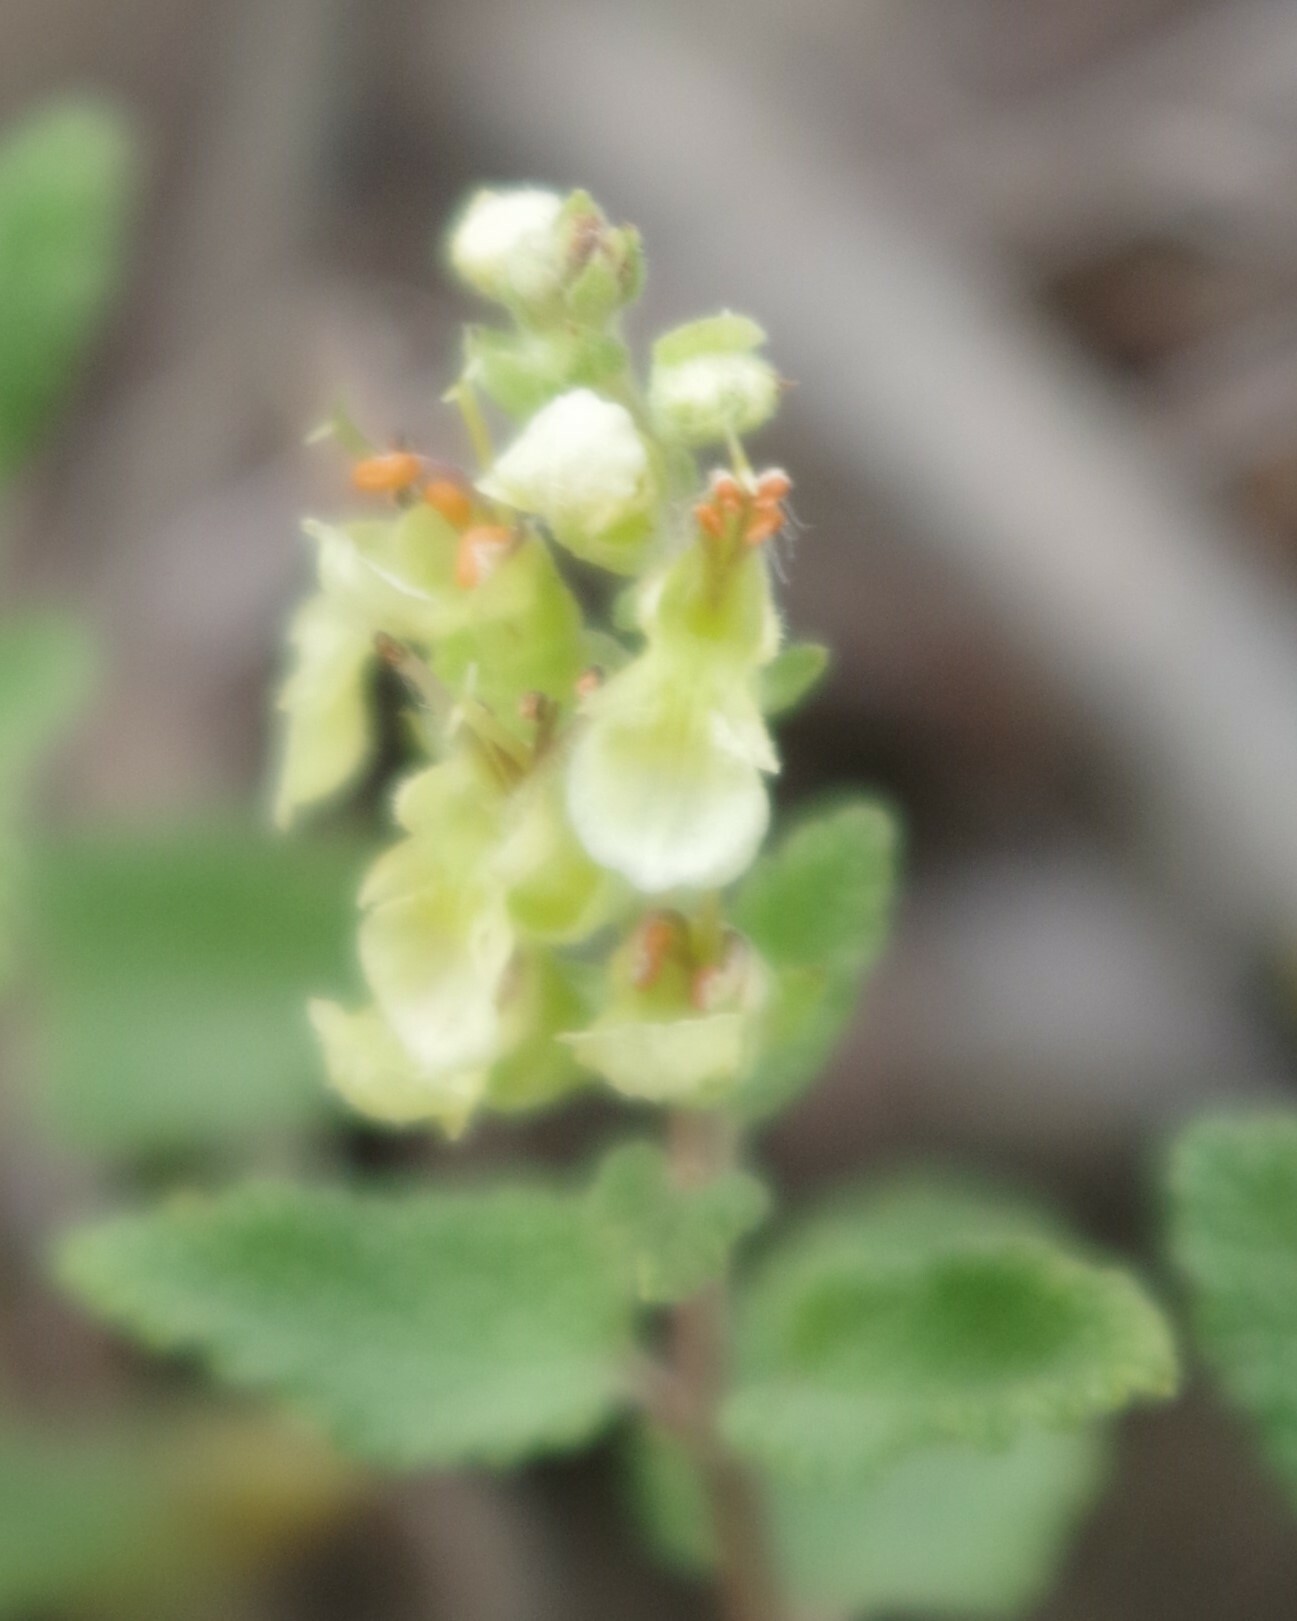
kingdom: Plantae
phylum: Tracheophyta
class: Magnoliopsida
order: Lamiales
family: Lamiaceae
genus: Teucrium
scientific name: Teucrium scorodonia
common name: Woodland germander
